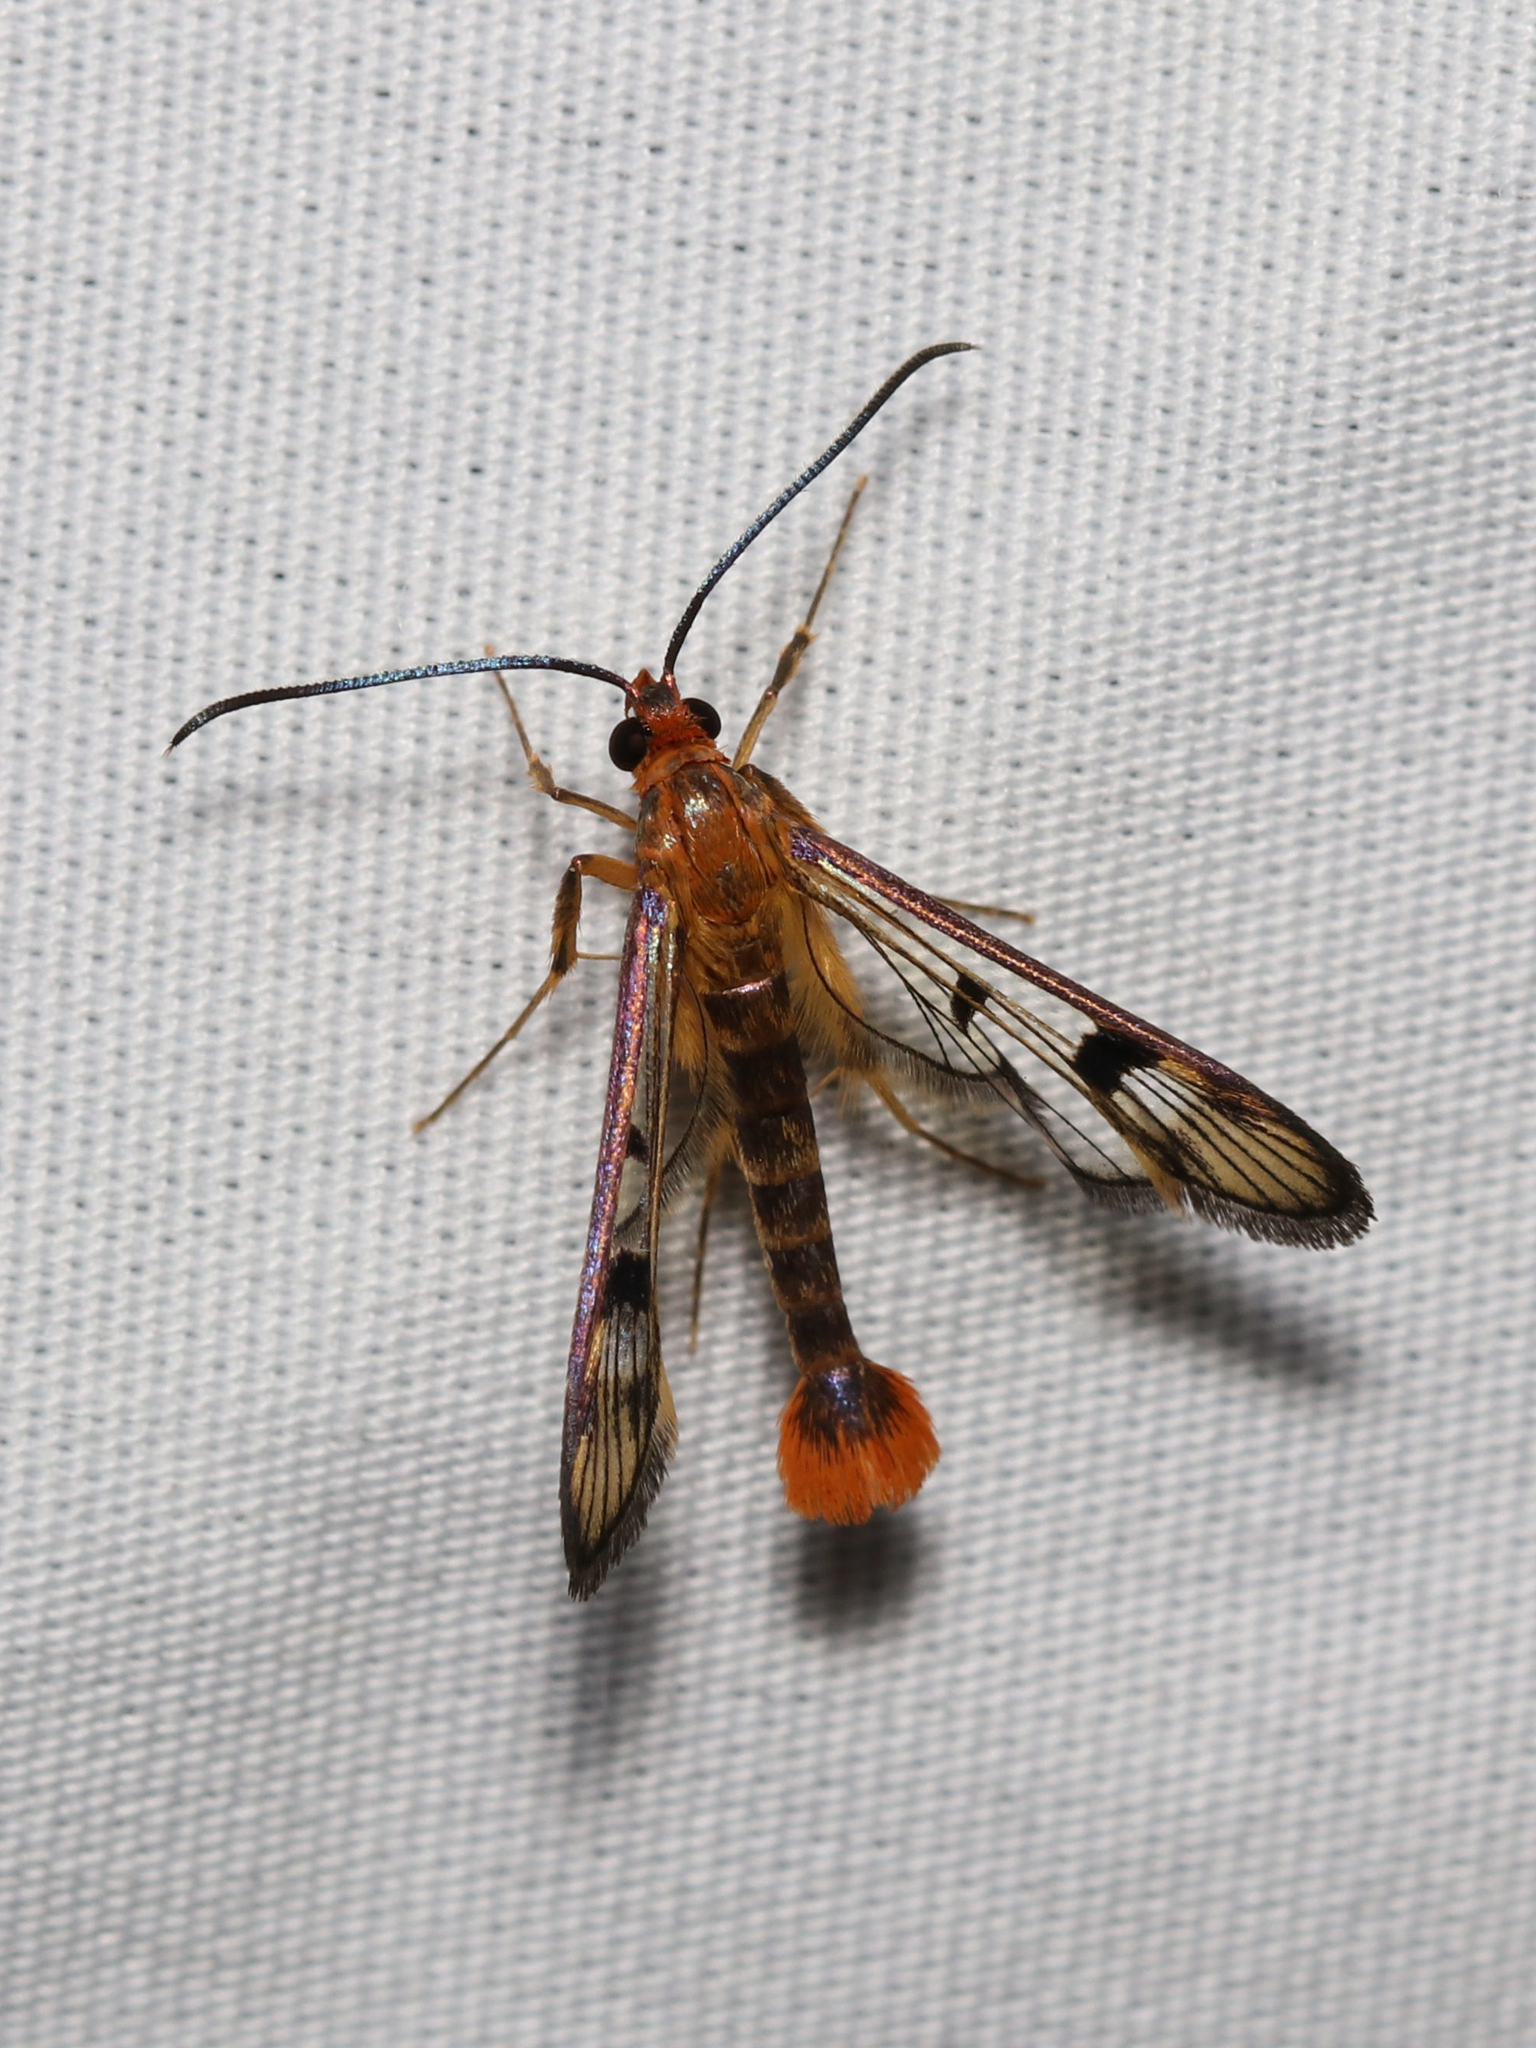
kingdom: Animalia
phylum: Arthropoda
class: Insecta
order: Lepidoptera
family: Sesiidae
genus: Synanthedon
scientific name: Synanthedon acerni
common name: Maple callus borer moth
